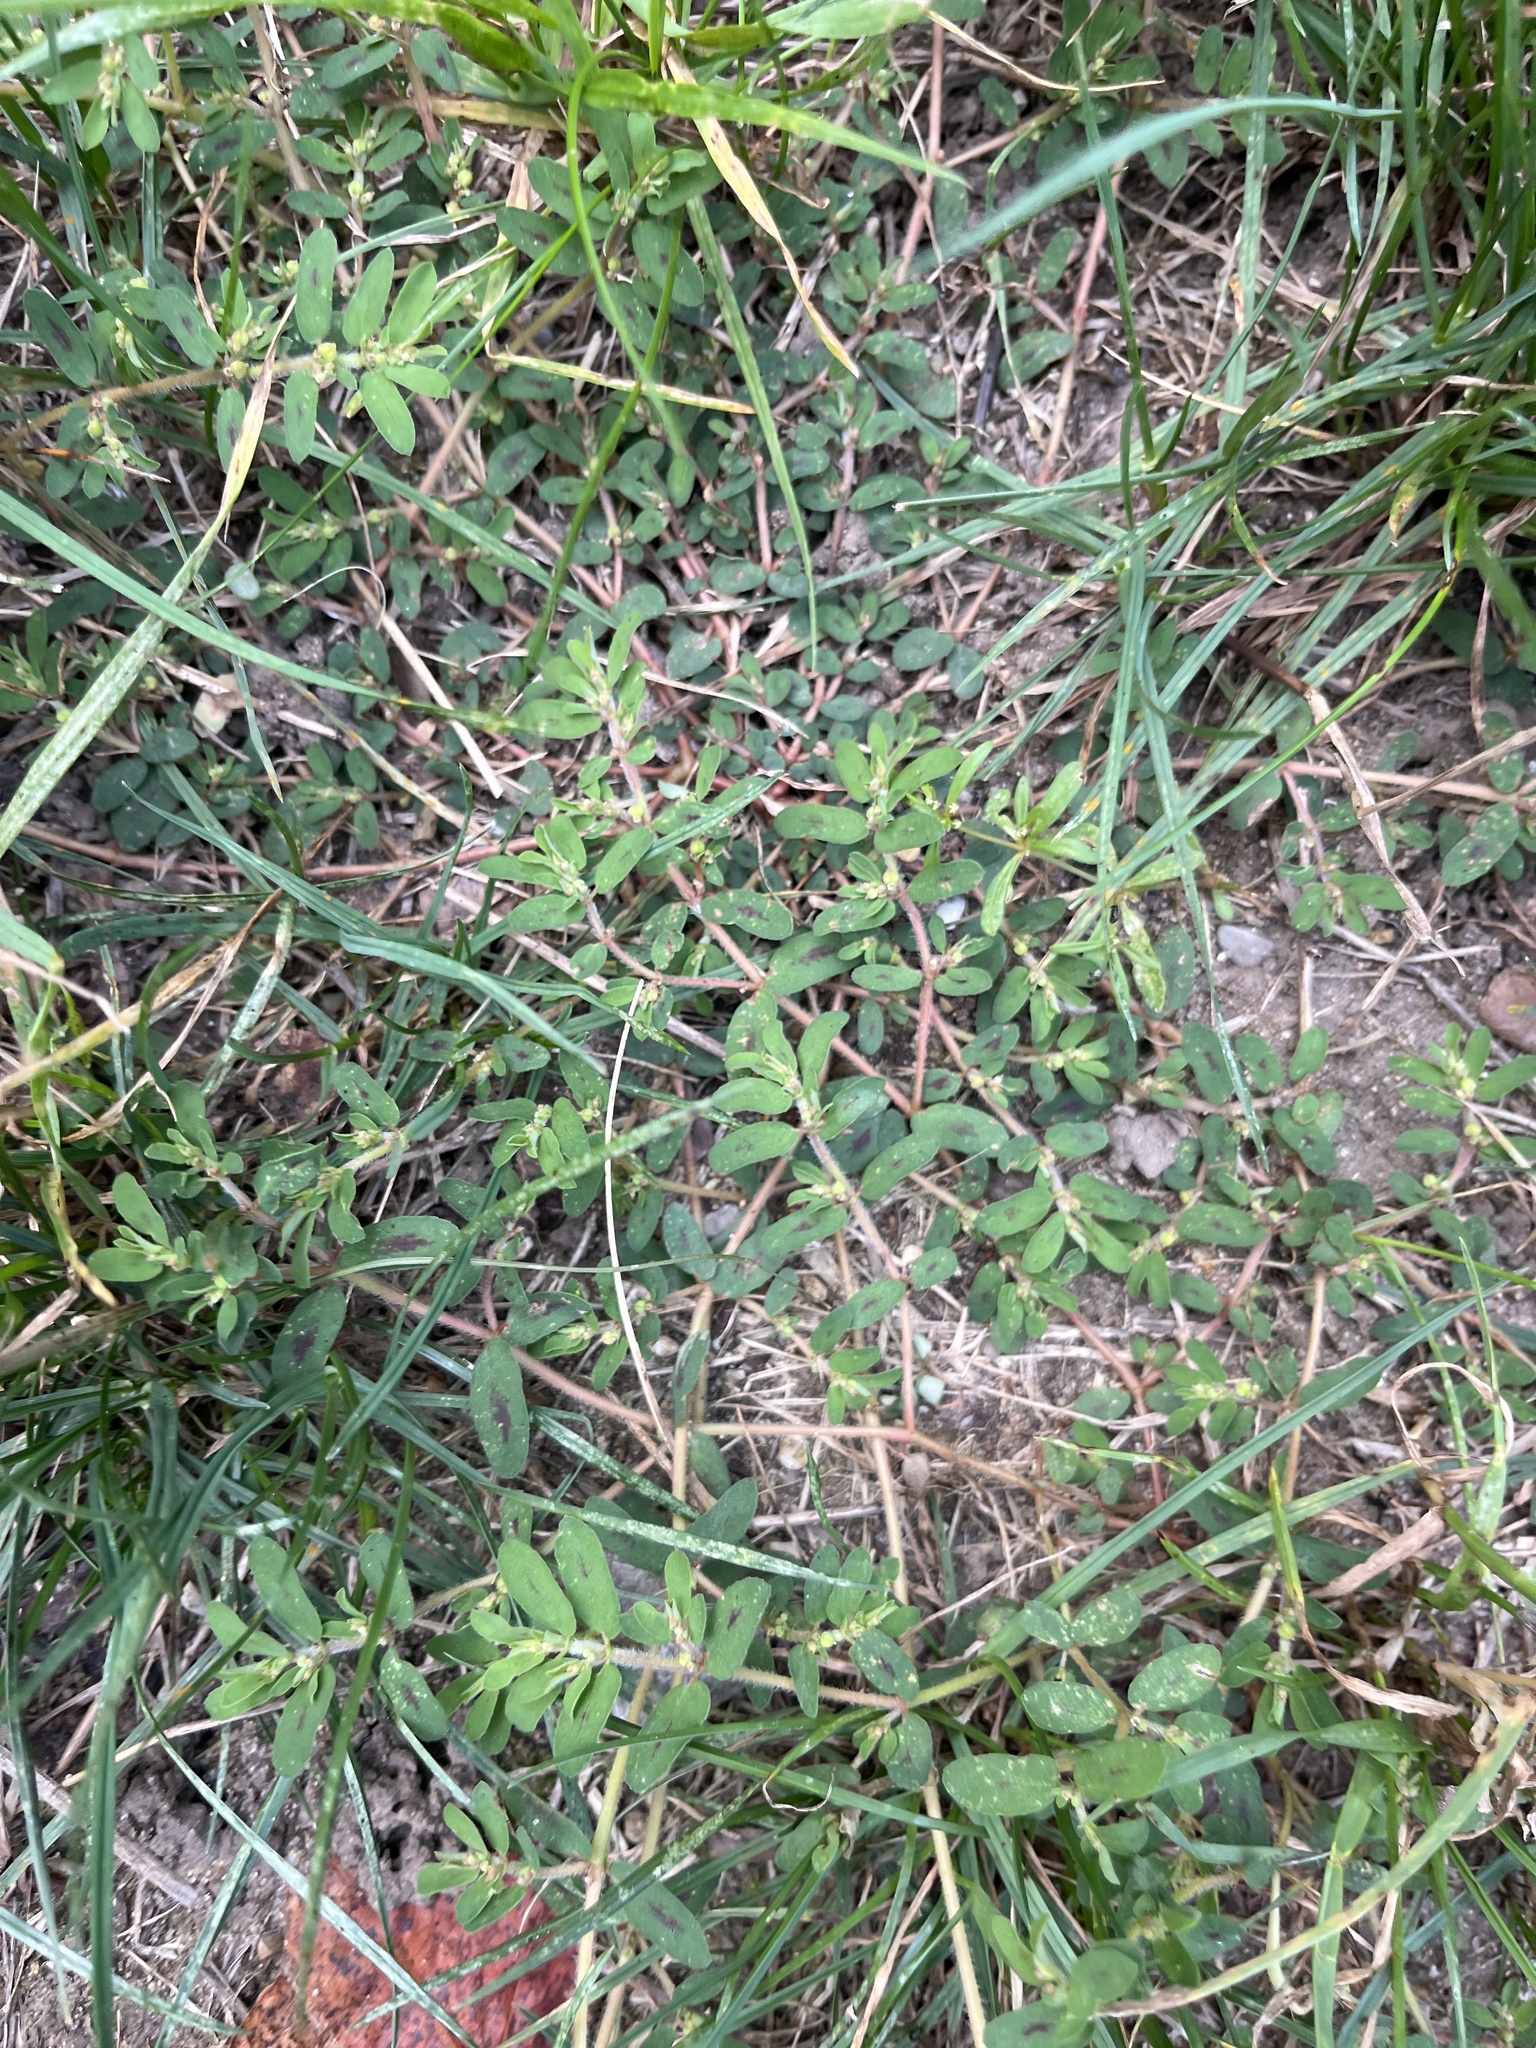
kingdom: Plantae
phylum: Tracheophyta
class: Magnoliopsida
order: Malpighiales
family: Euphorbiaceae
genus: Euphorbia
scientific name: Euphorbia maculata
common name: Spotted spurge
